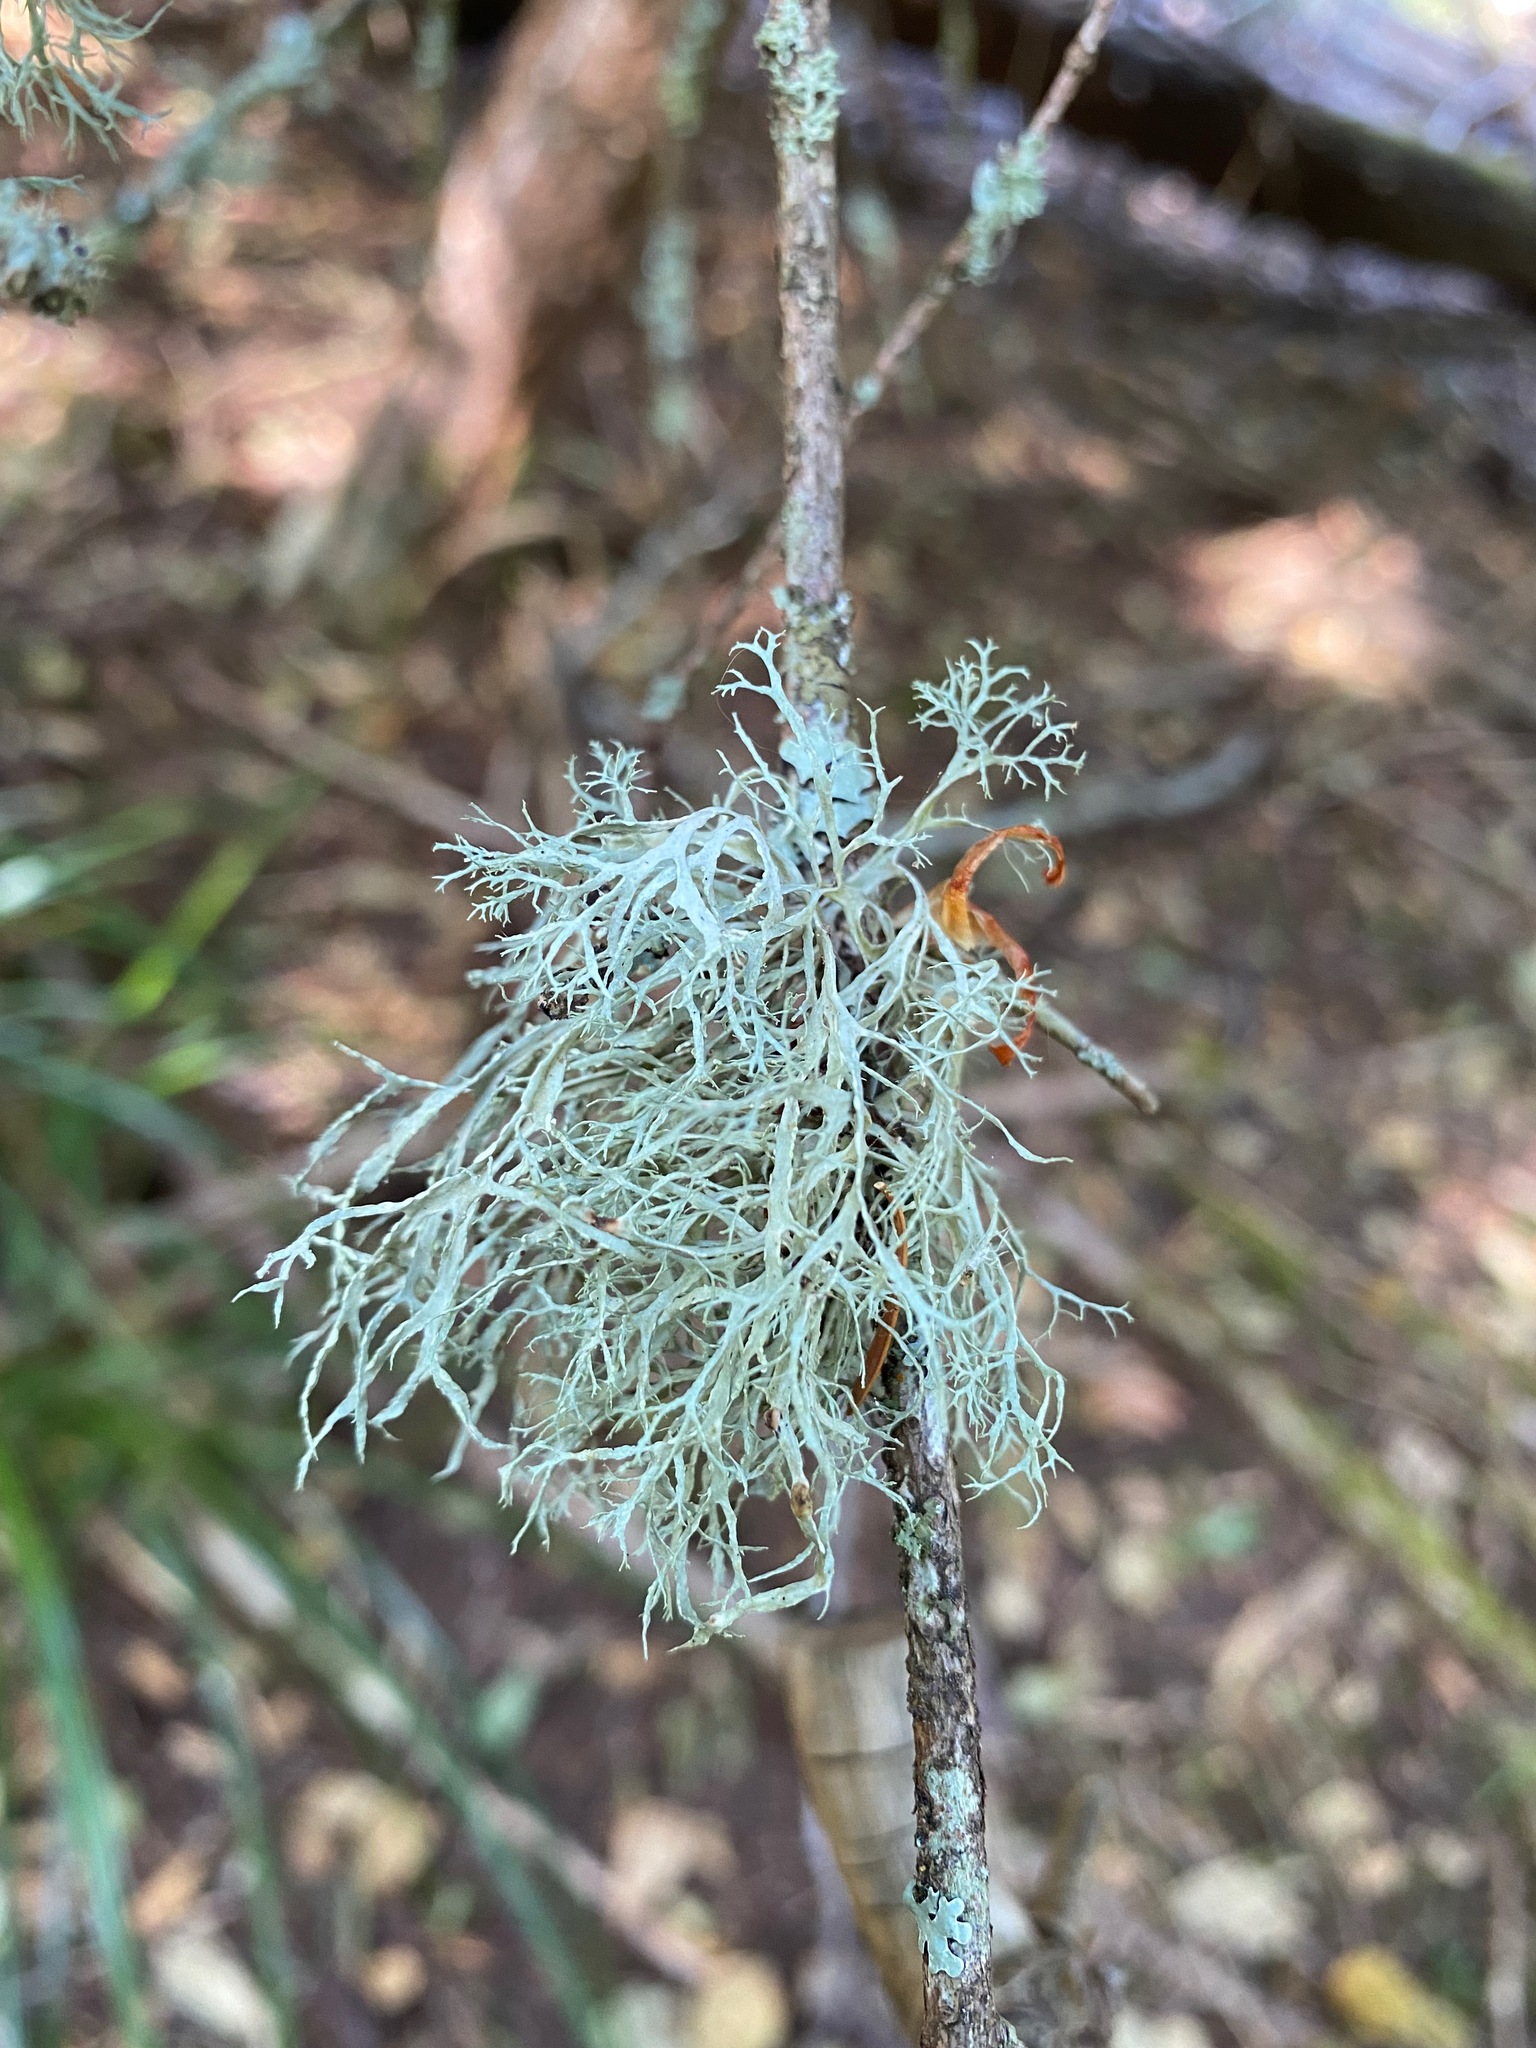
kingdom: Fungi
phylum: Ascomycota
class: Lecanoromycetes
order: Lecanorales
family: Ramalinaceae
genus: Ramalina
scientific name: Ramalina farinacea
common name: Farinose cartilage lichen
